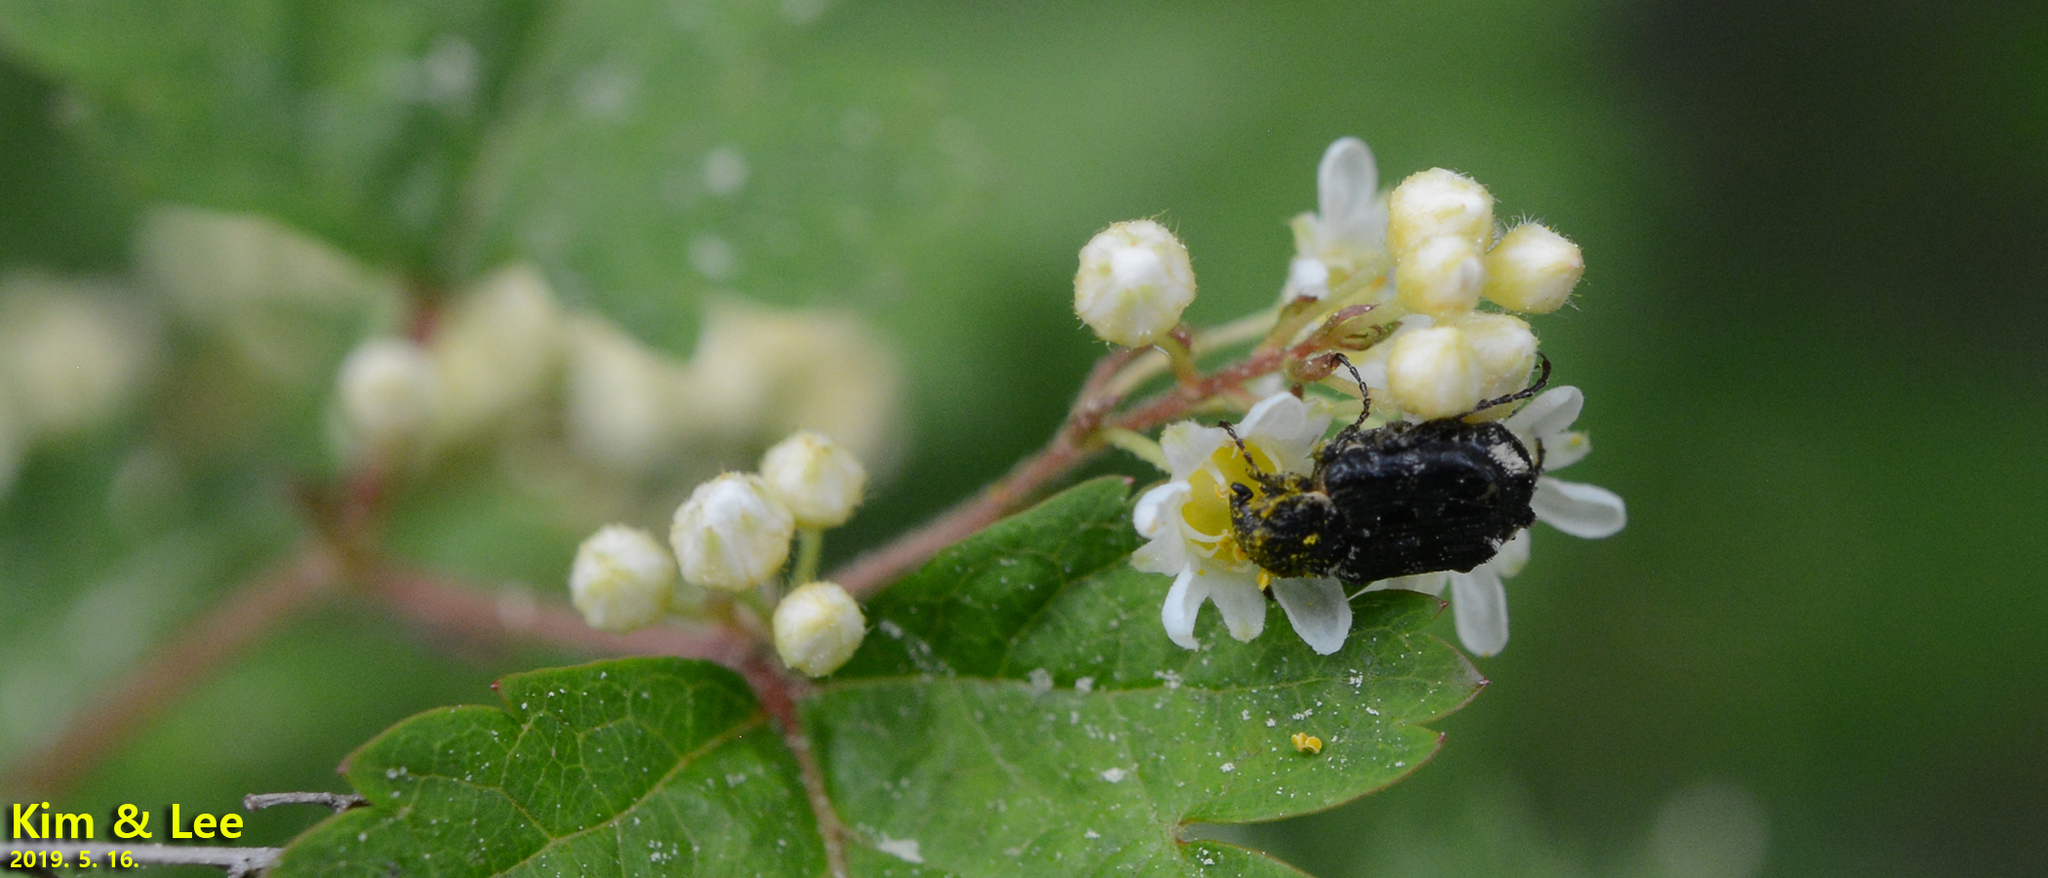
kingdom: Animalia
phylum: Arthropoda
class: Insecta
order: Coleoptera
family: Scarabaeidae
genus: Nipponovalgus
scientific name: Nipponovalgus angusticollis
